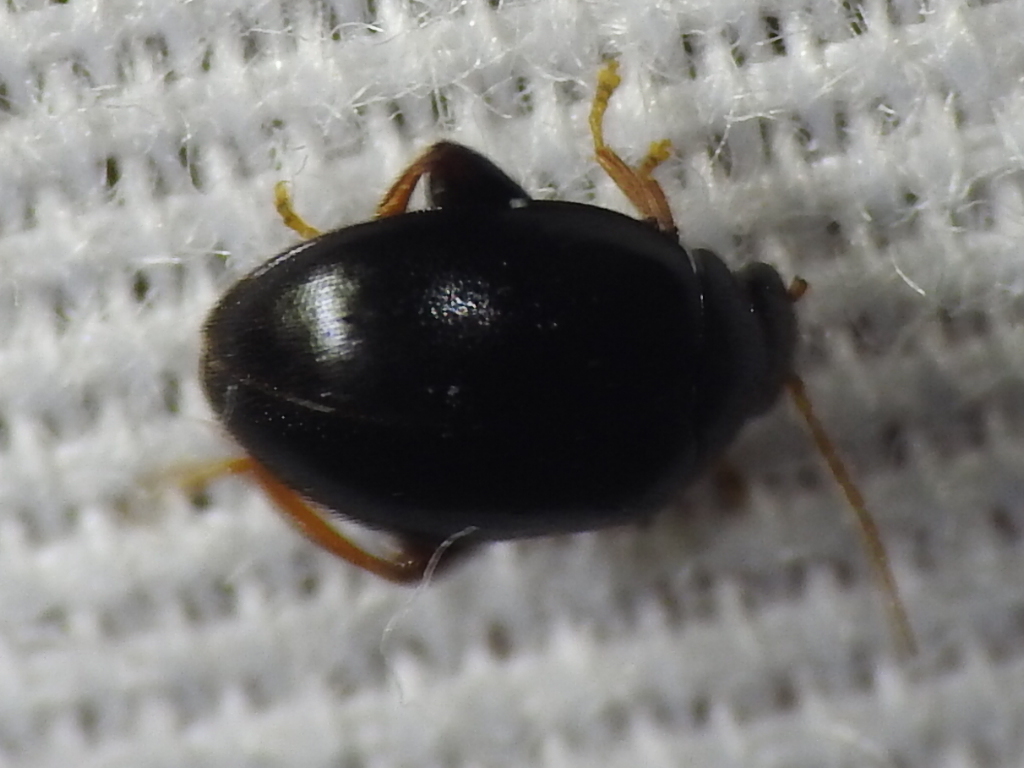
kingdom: Animalia
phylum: Arthropoda
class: Insecta
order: Coleoptera
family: Scirtidae
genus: Scirtes
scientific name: Scirtes tibialis
